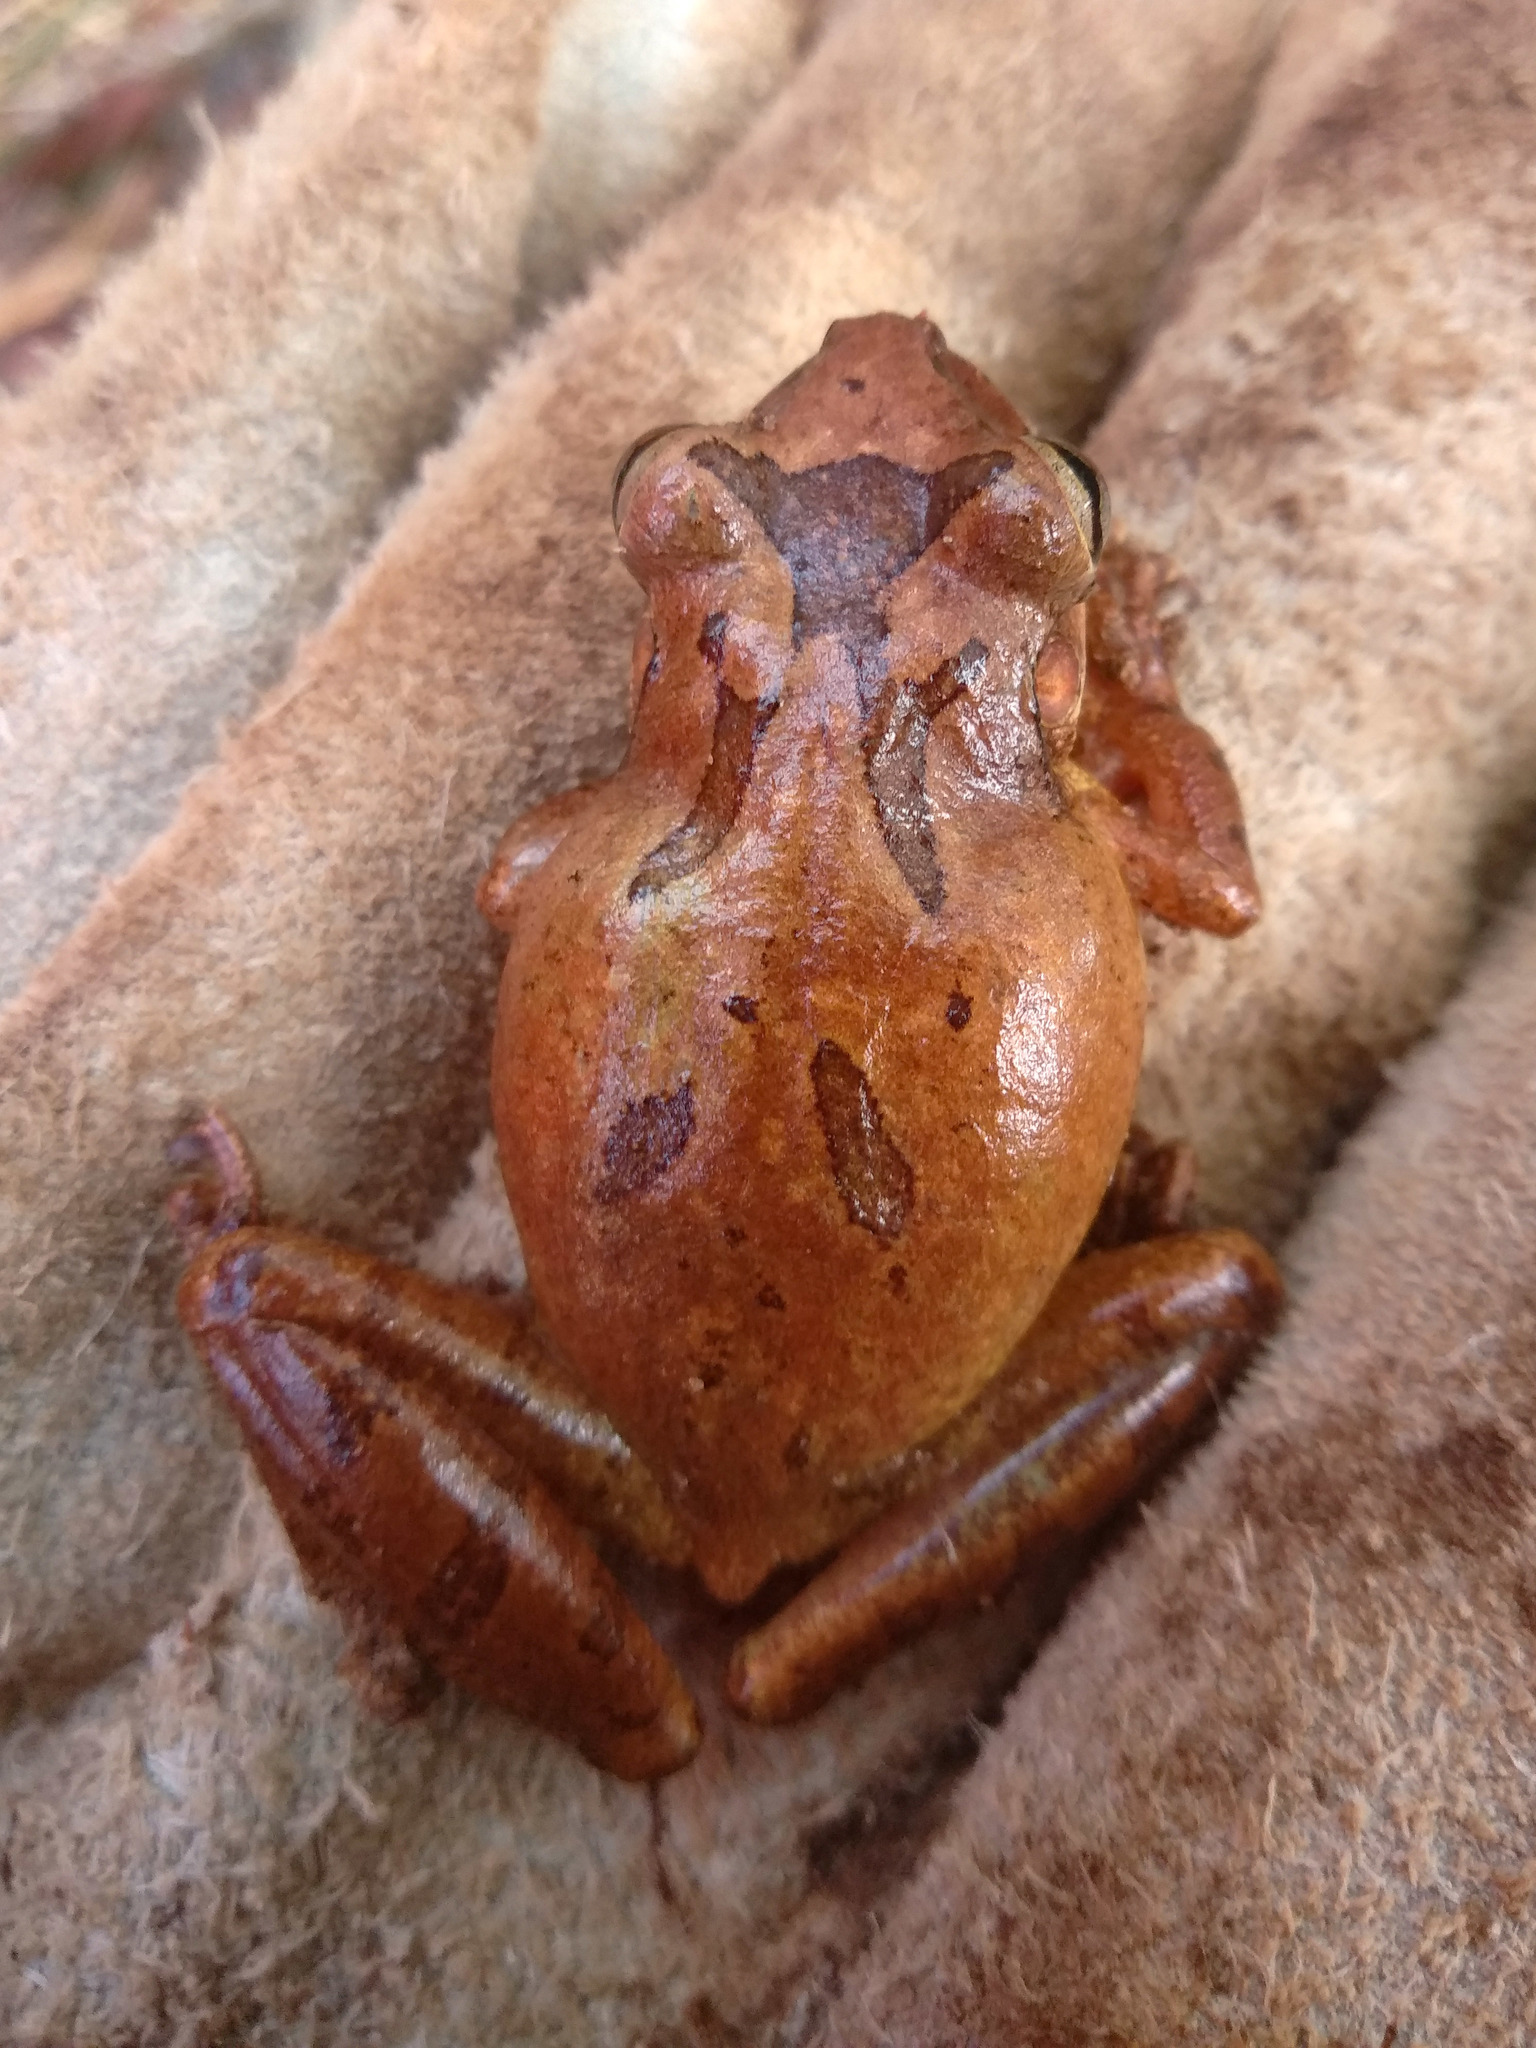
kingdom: Animalia
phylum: Chordata
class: Amphibia
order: Anura
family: Hylidae
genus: Scinax
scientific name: Scinax eurydice
